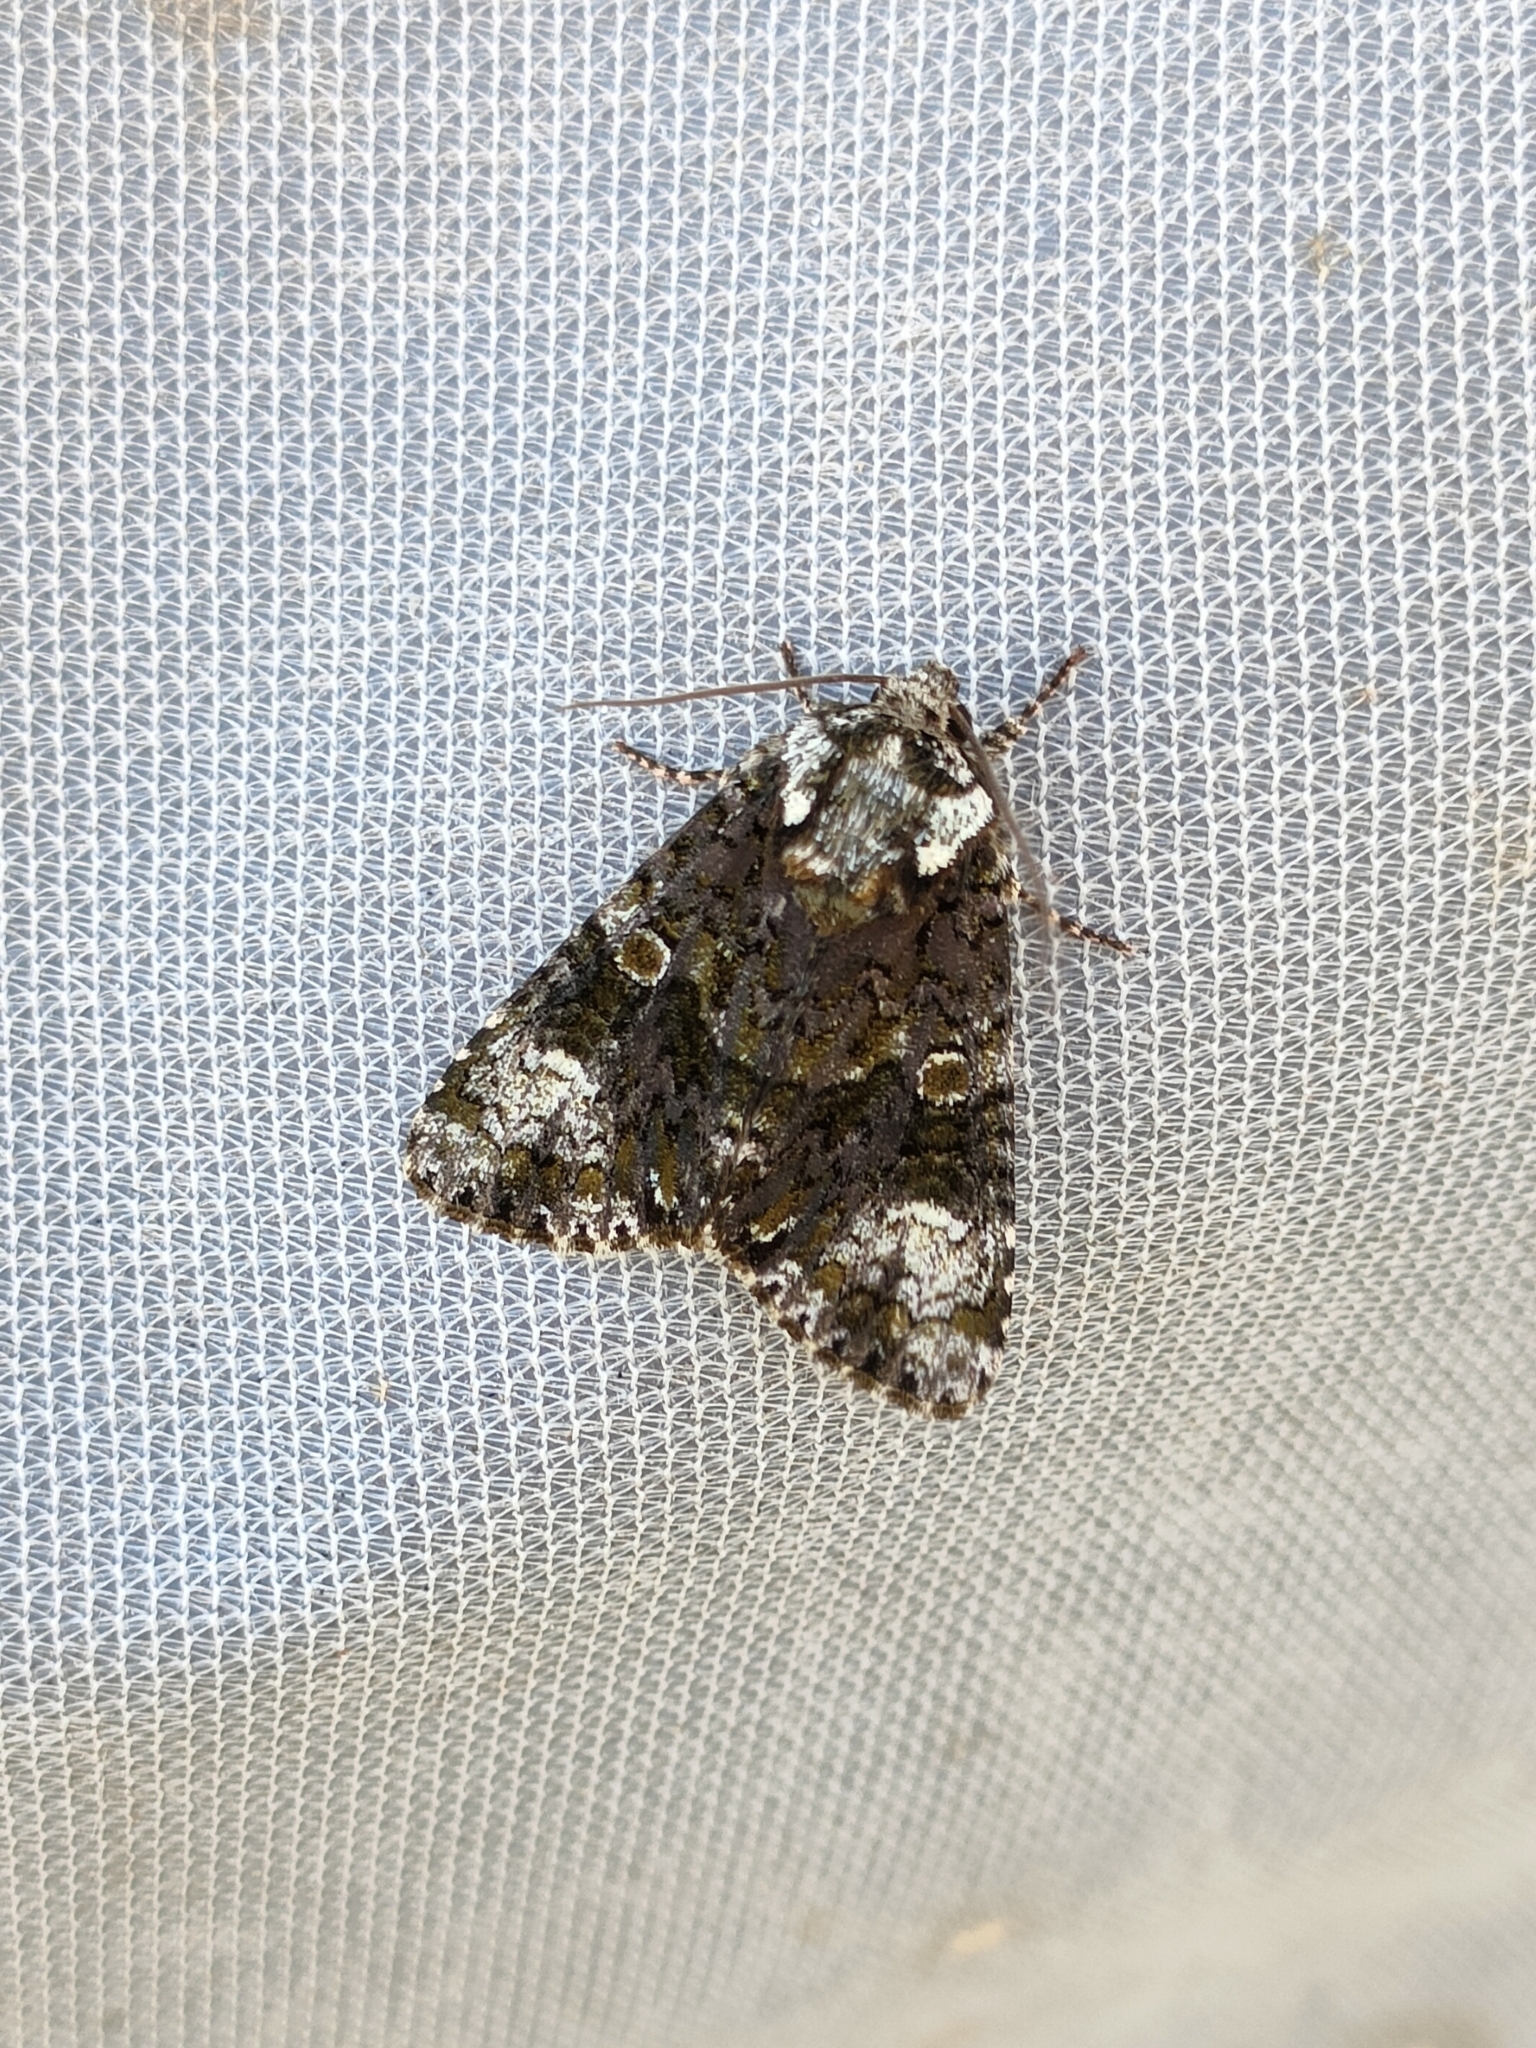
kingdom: Animalia
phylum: Arthropoda
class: Insecta
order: Lepidoptera
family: Noctuidae
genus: Craniophora
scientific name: Craniophora ligustri
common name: Coronet
